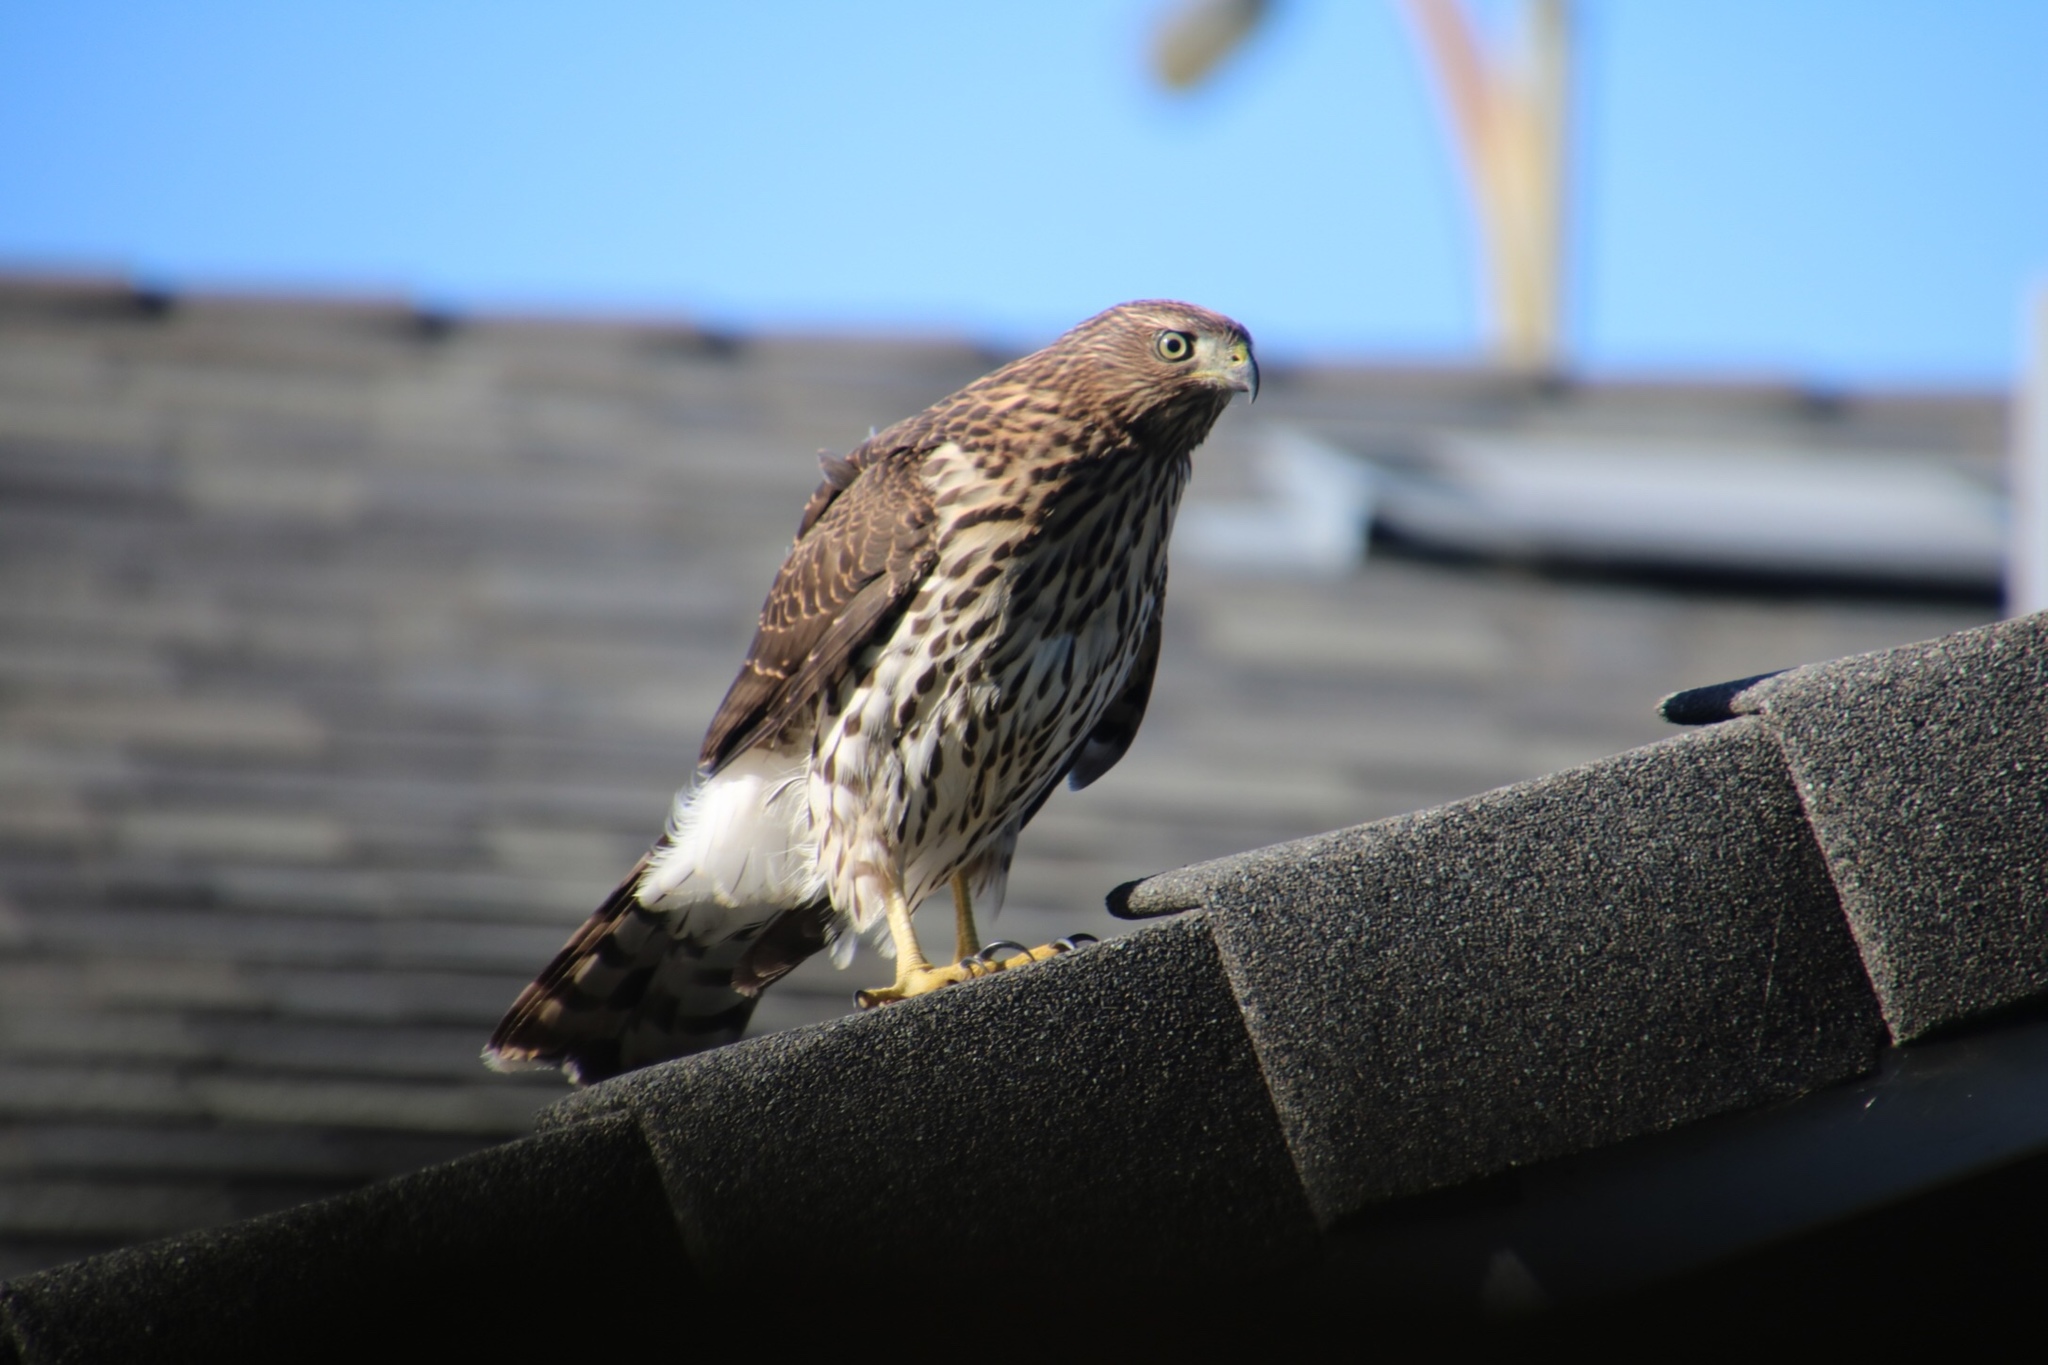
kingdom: Animalia
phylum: Chordata
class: Aves
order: Accipitriformes
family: Accipitridae
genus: Accipiter
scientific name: Accipiter cooperii
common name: Cooper's hawk
